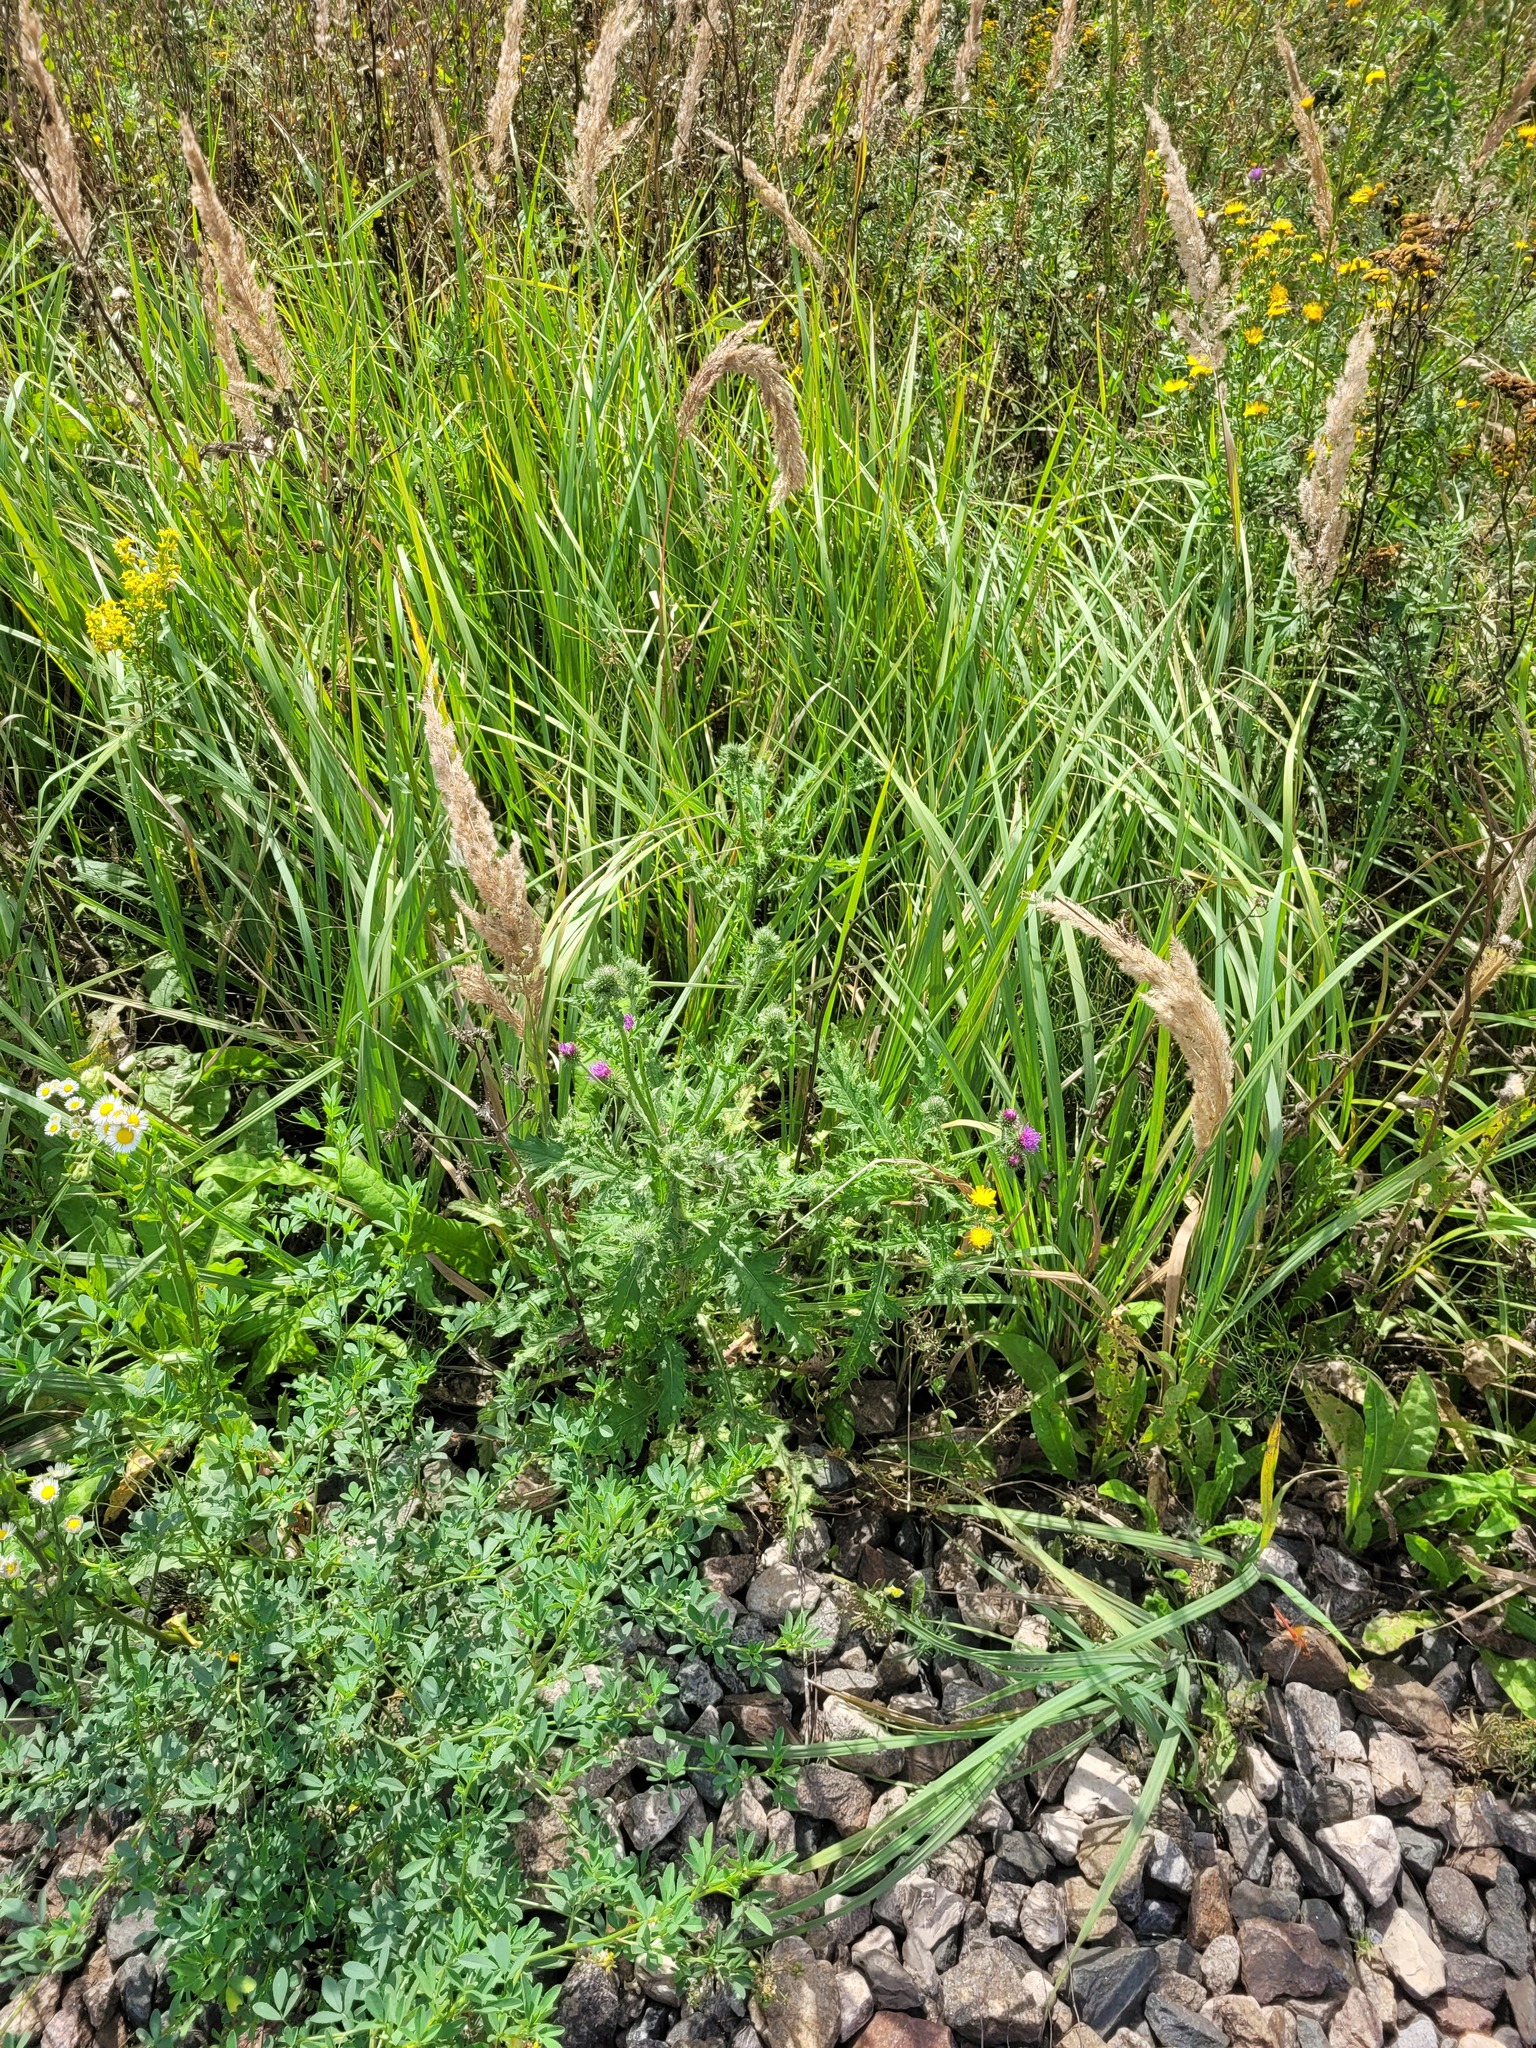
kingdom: Plantae
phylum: Tracheophyta
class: Magnoliopsida
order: Asterales
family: Asteraceae
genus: Carduus
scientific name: Carduus crispus
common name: Welted thistle
